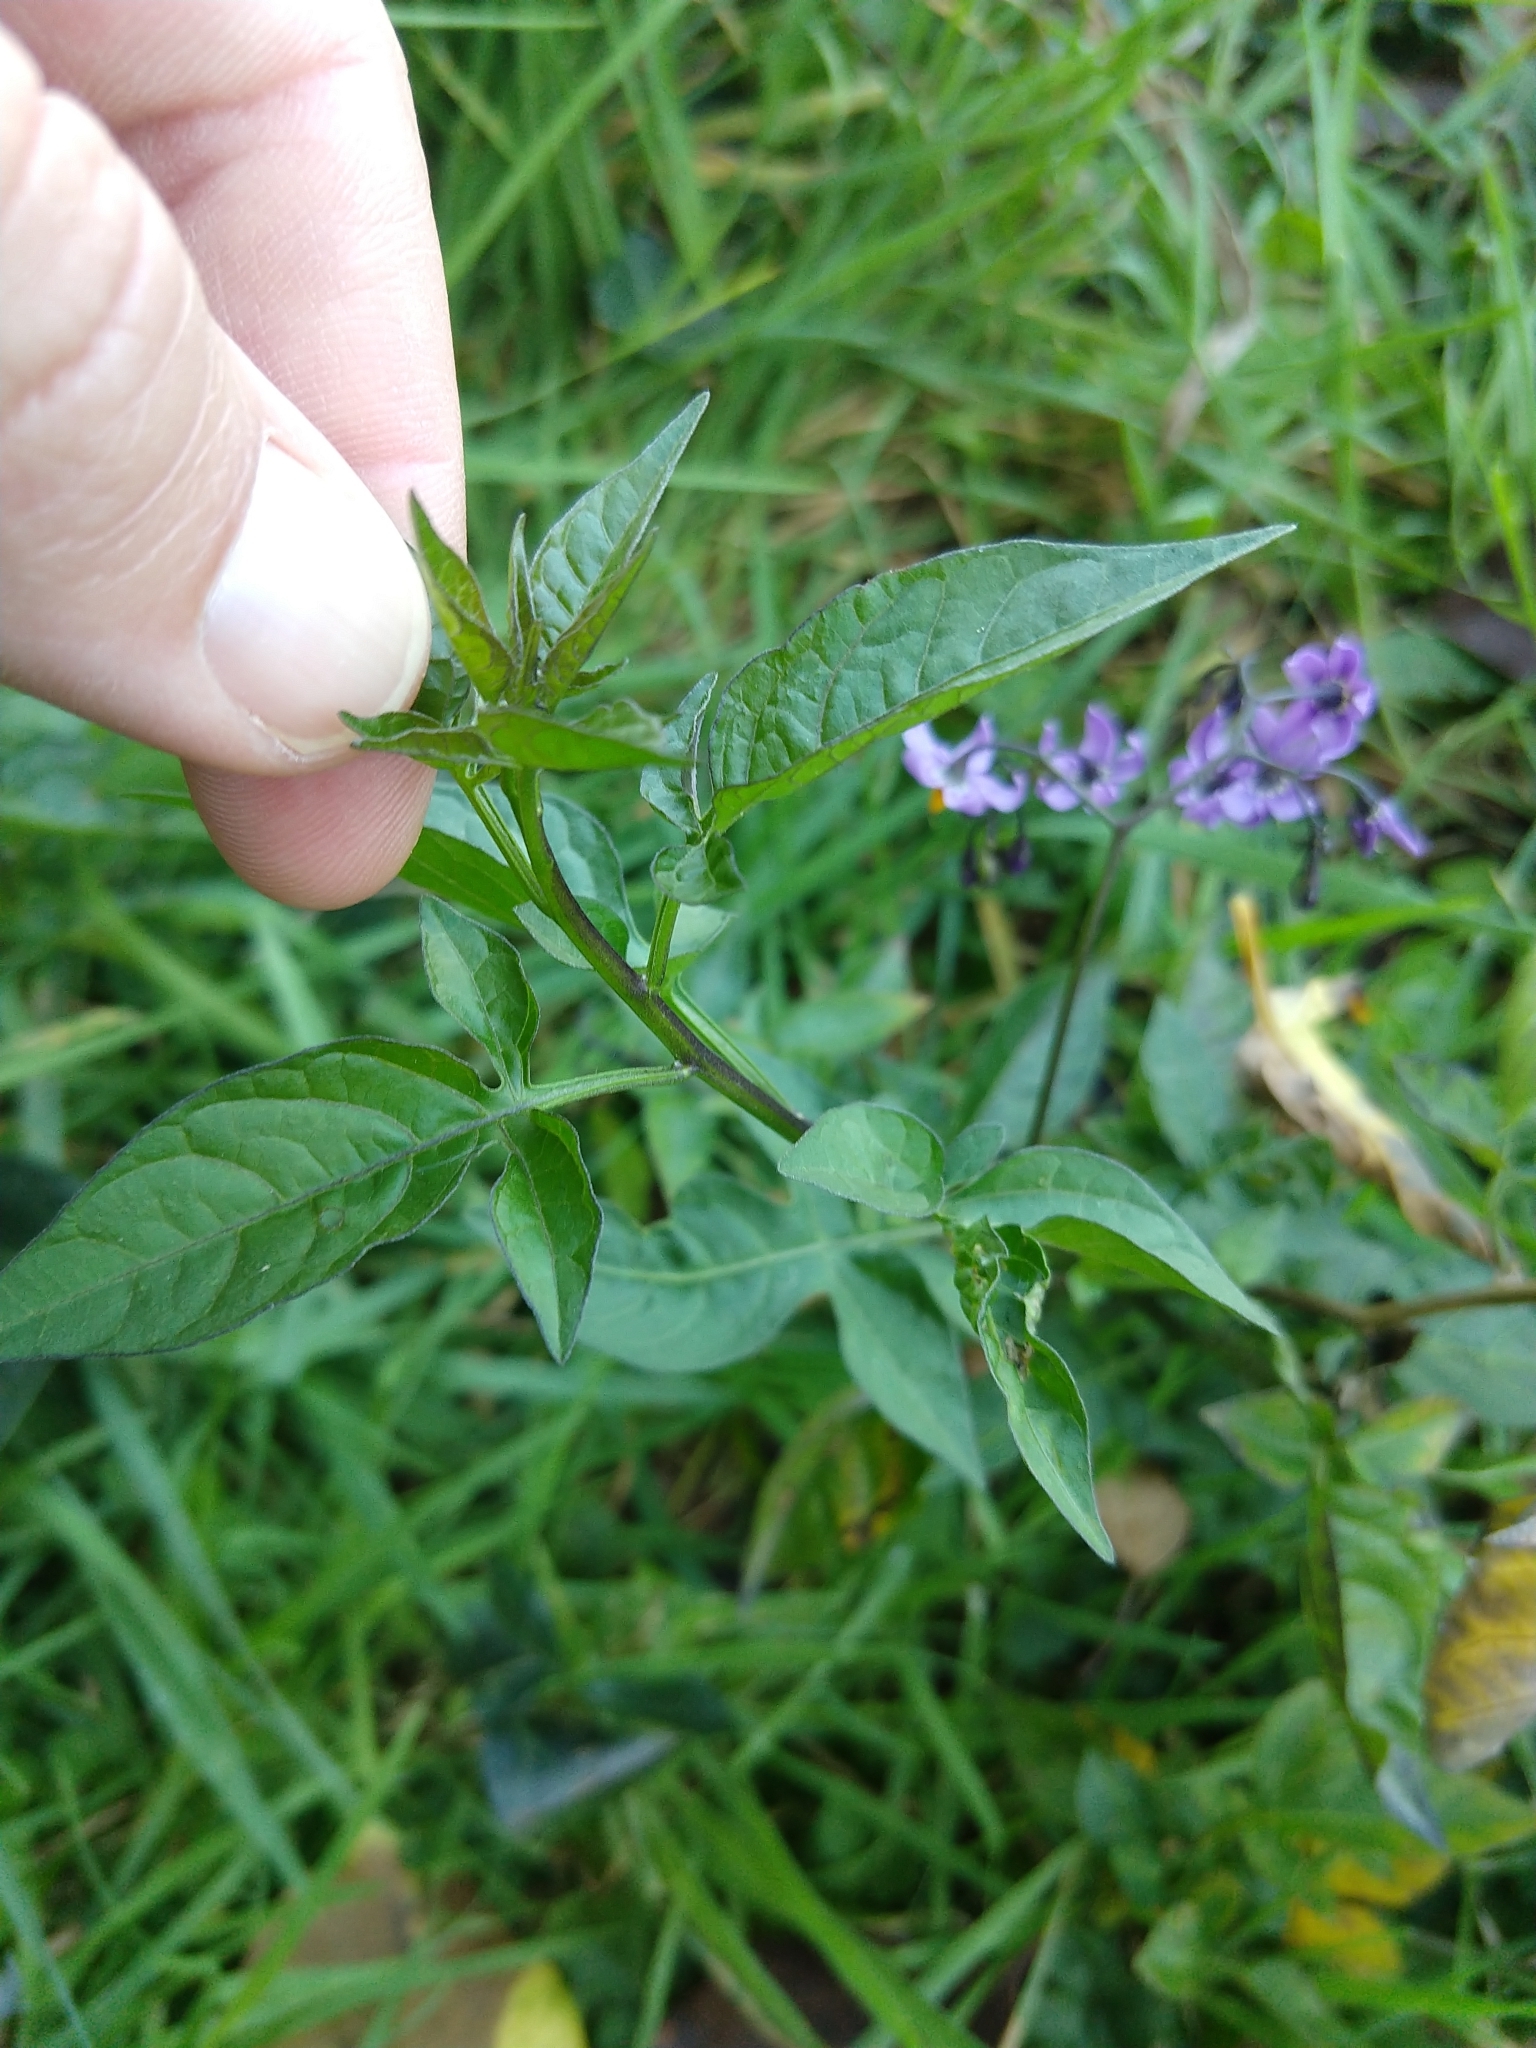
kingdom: Plantae
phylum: Tracheophyta
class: Magnoliopsida
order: Solanales
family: Solanaceae
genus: Solanum
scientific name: Solanum dulcamara
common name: Climbing nightshade
